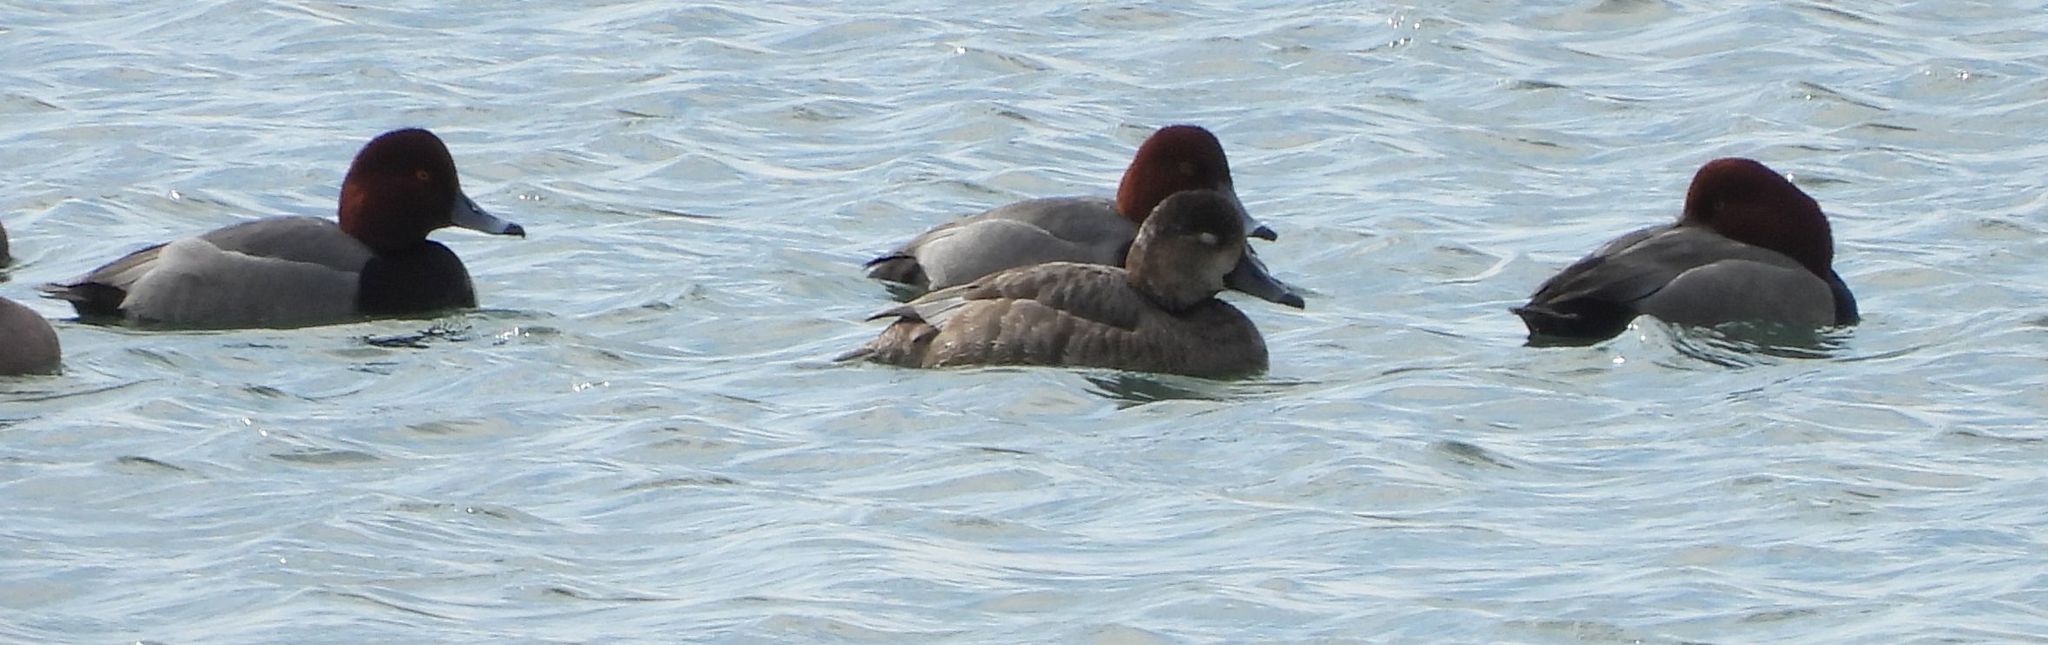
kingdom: Animalia
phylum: Chordata
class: Aves
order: Anseriformes
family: Anatidae
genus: Aythya
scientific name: Aythya americana
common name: Redhead
